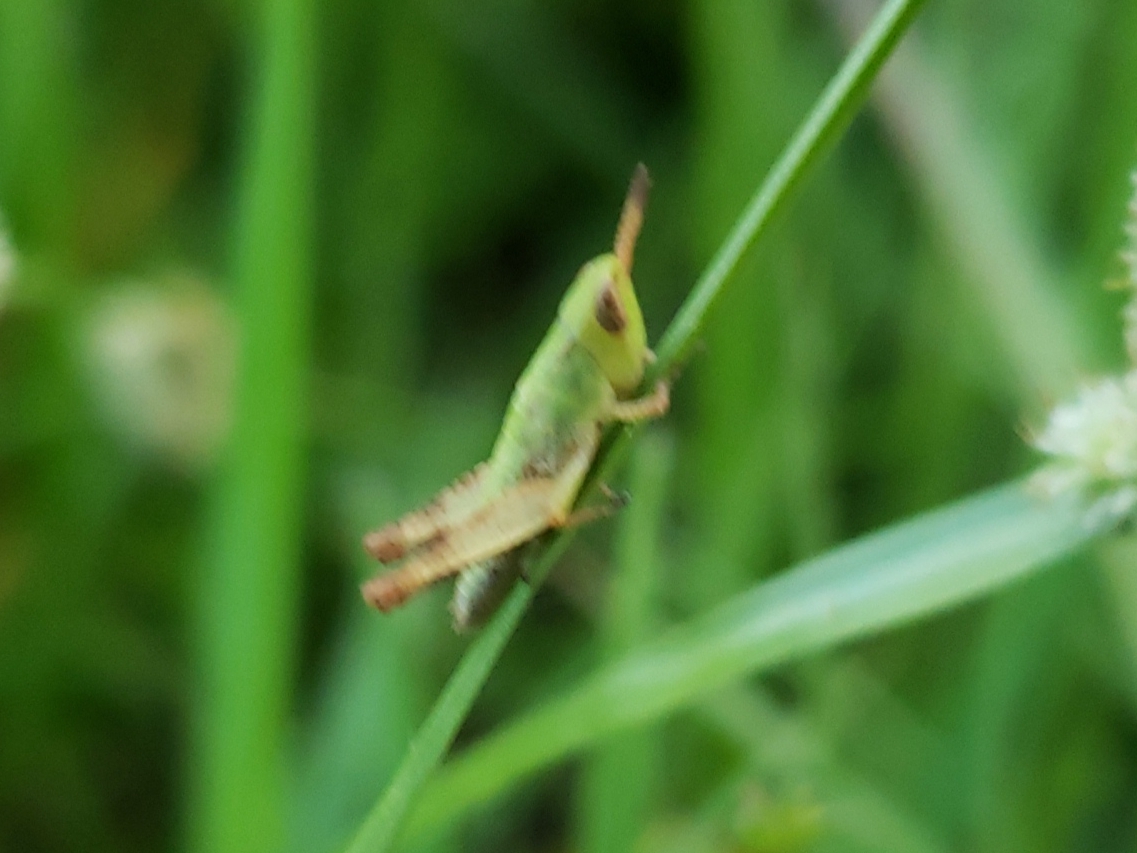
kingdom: Animalia
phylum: Arthropoda
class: Insecta
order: Orthoptera
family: Acrididae
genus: Dichromorpha
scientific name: Dichromorpha viridis
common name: Short-winged green grasshopper
